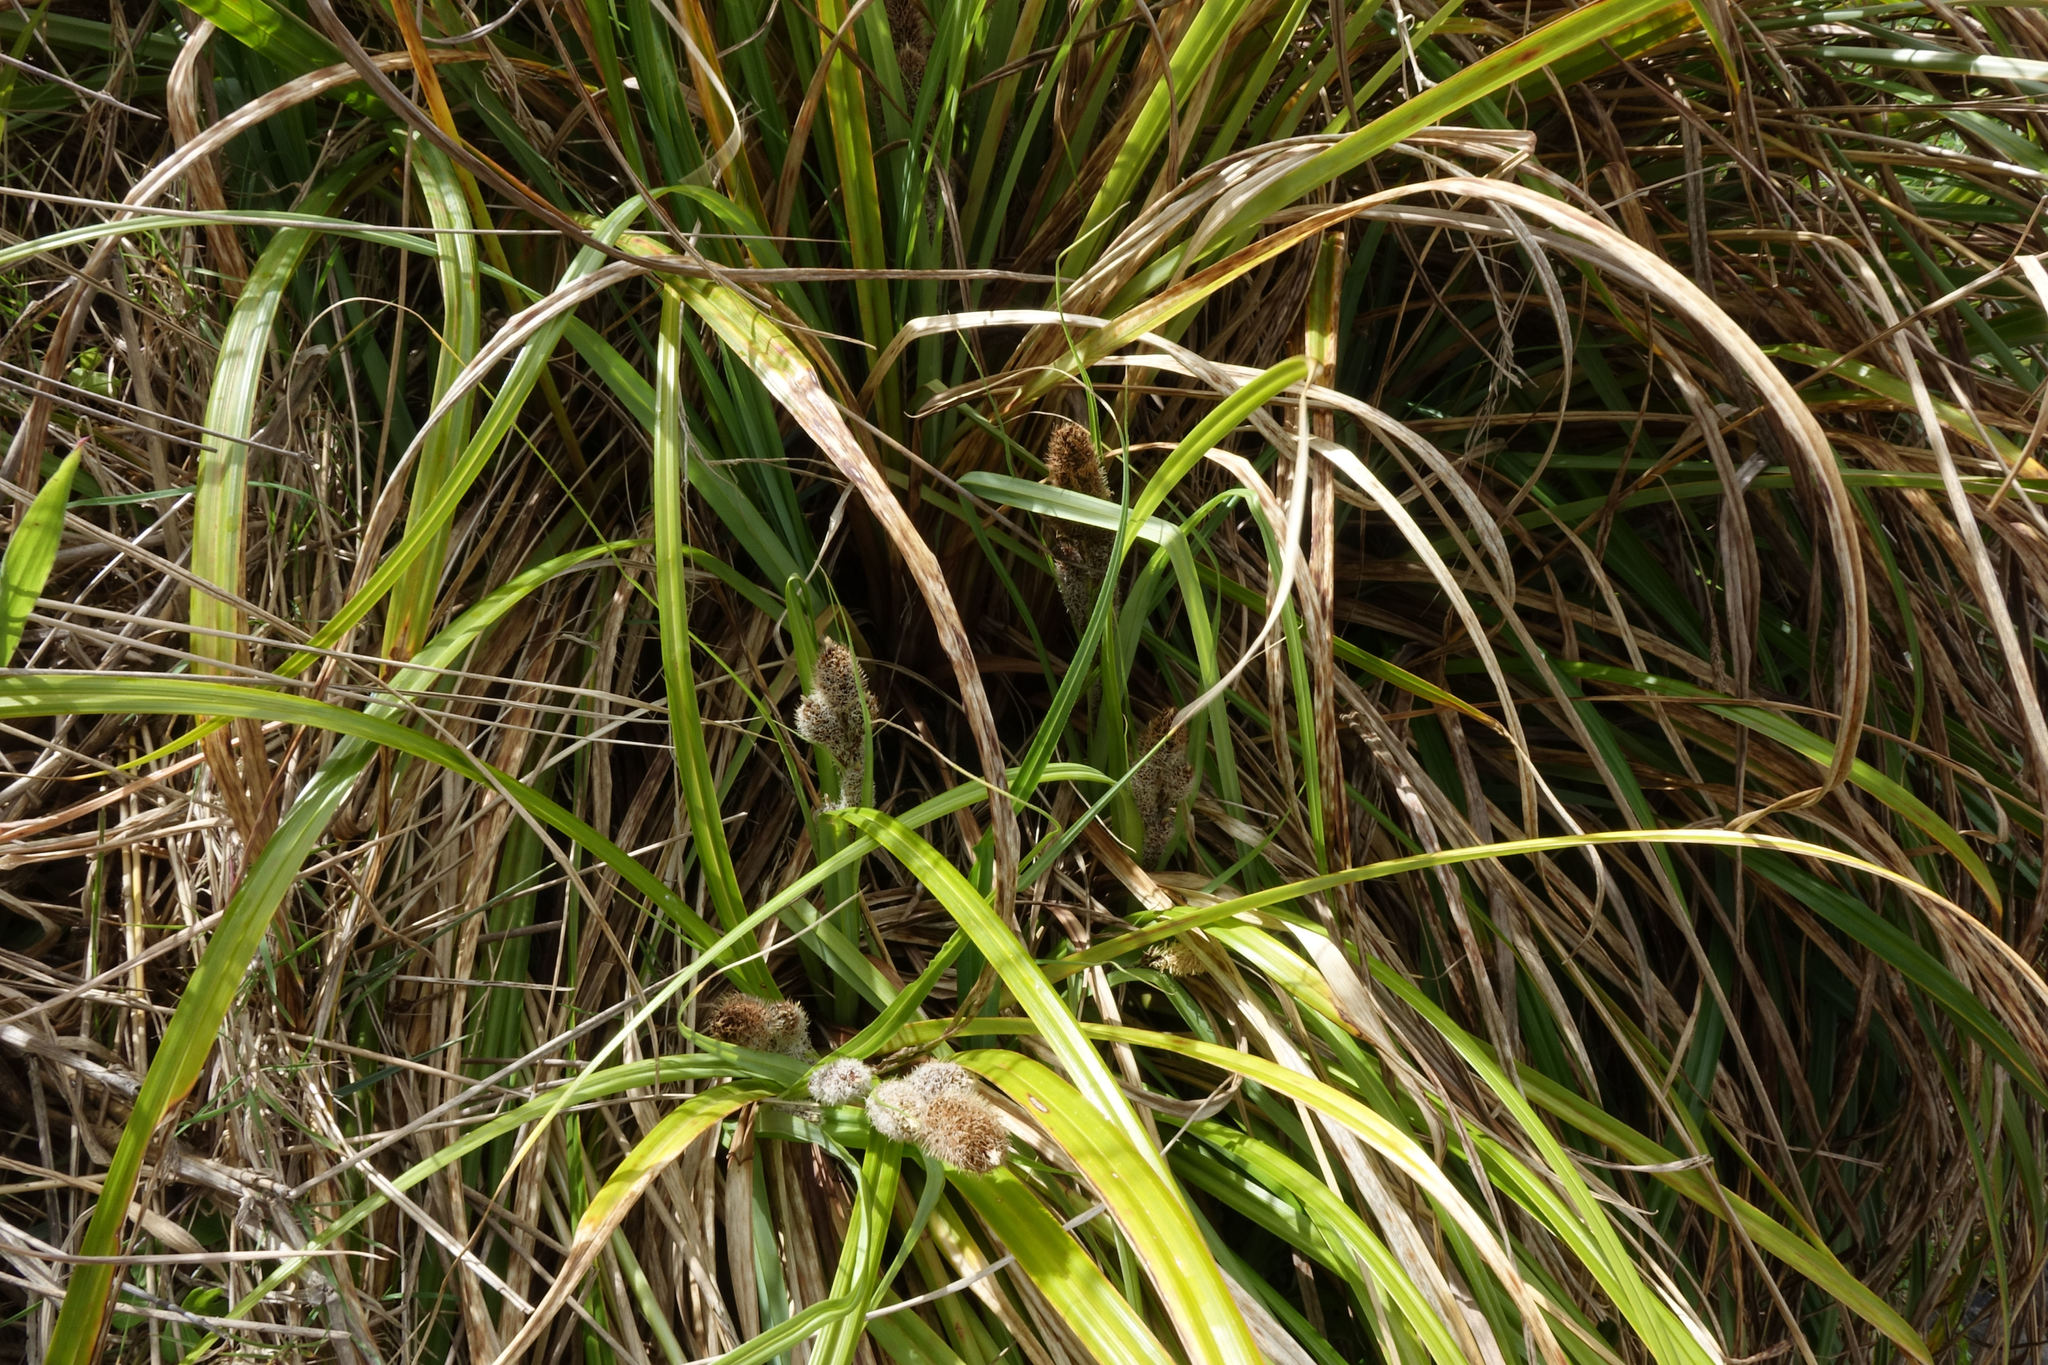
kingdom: Plantae
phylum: Tracheophyta
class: Liliopsida
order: Poales
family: Cyperaceae
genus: Carex
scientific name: Carex trifida
